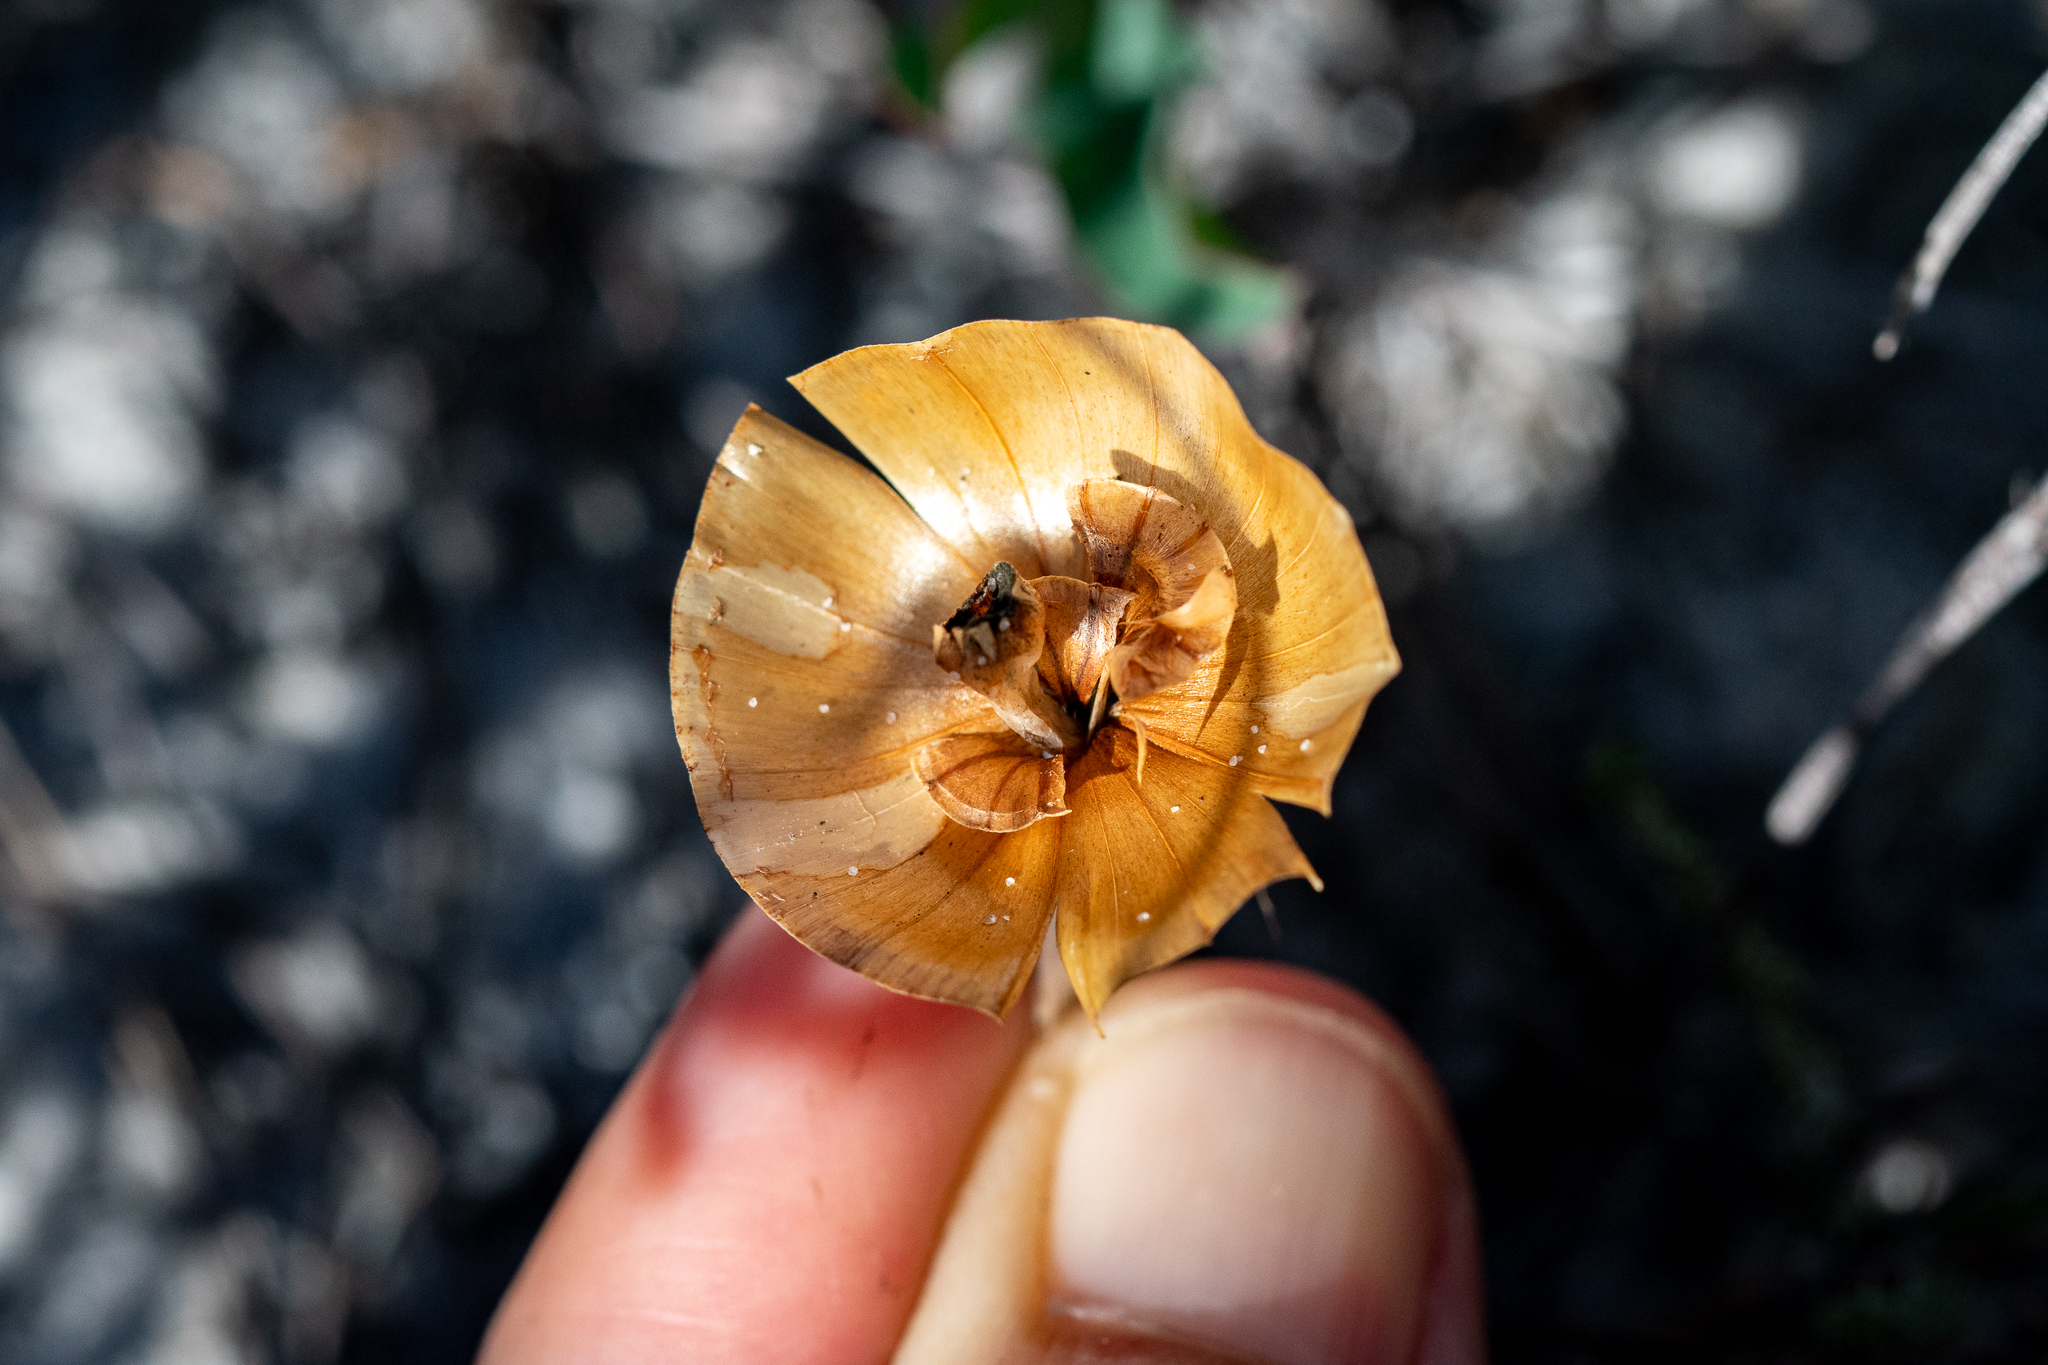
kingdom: Plantae
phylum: Tracheophyta
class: Magnoliopsida
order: Malpighiales
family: Euphorbiaceae
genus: Euphorbia
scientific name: Euphorbia tuberosa
